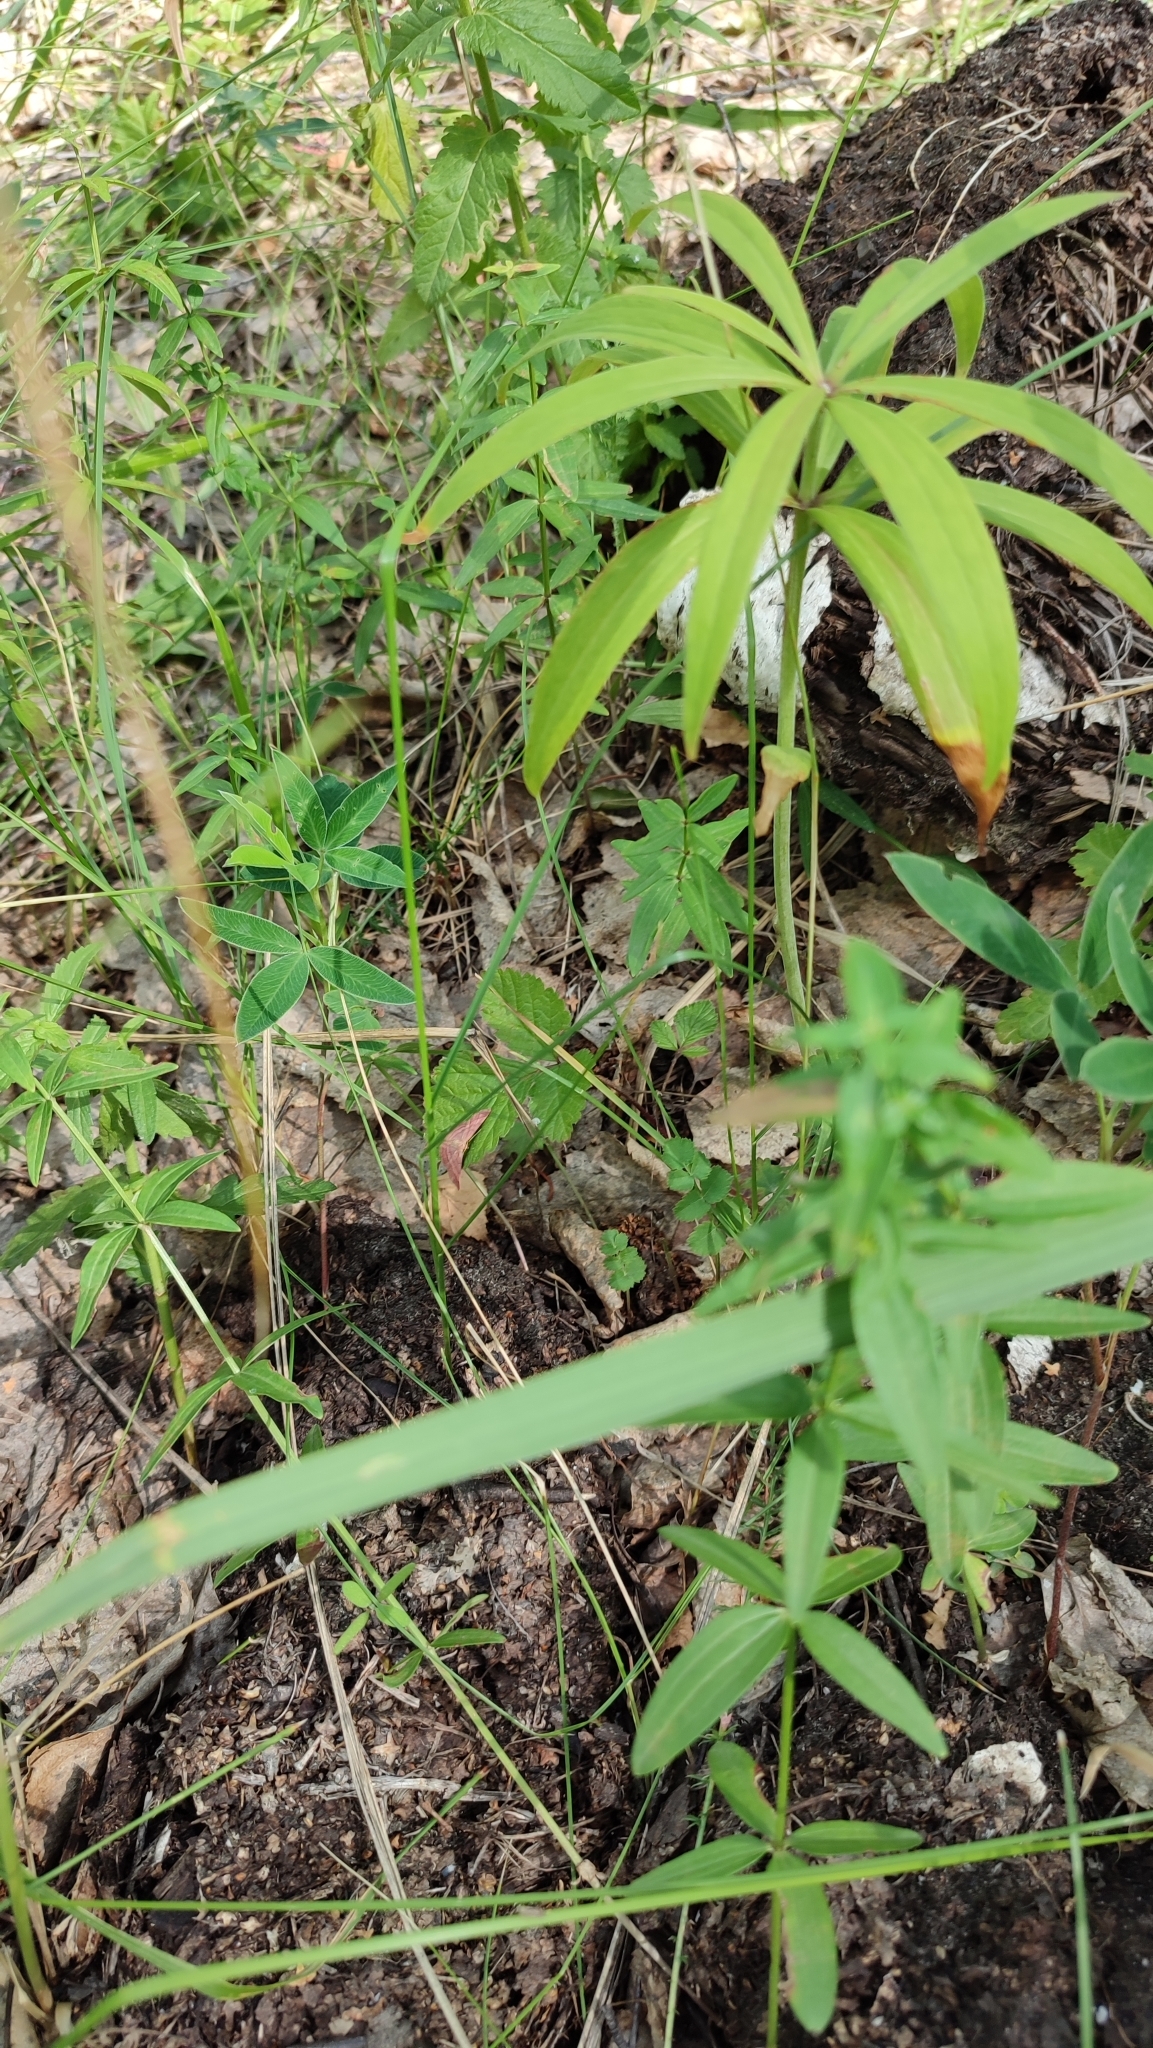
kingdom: Plantae
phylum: Tracheophyta
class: Liliopsida
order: Liliales
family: Liliaceae
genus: Lilium
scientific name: Lilium martagon
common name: Martagon lily
